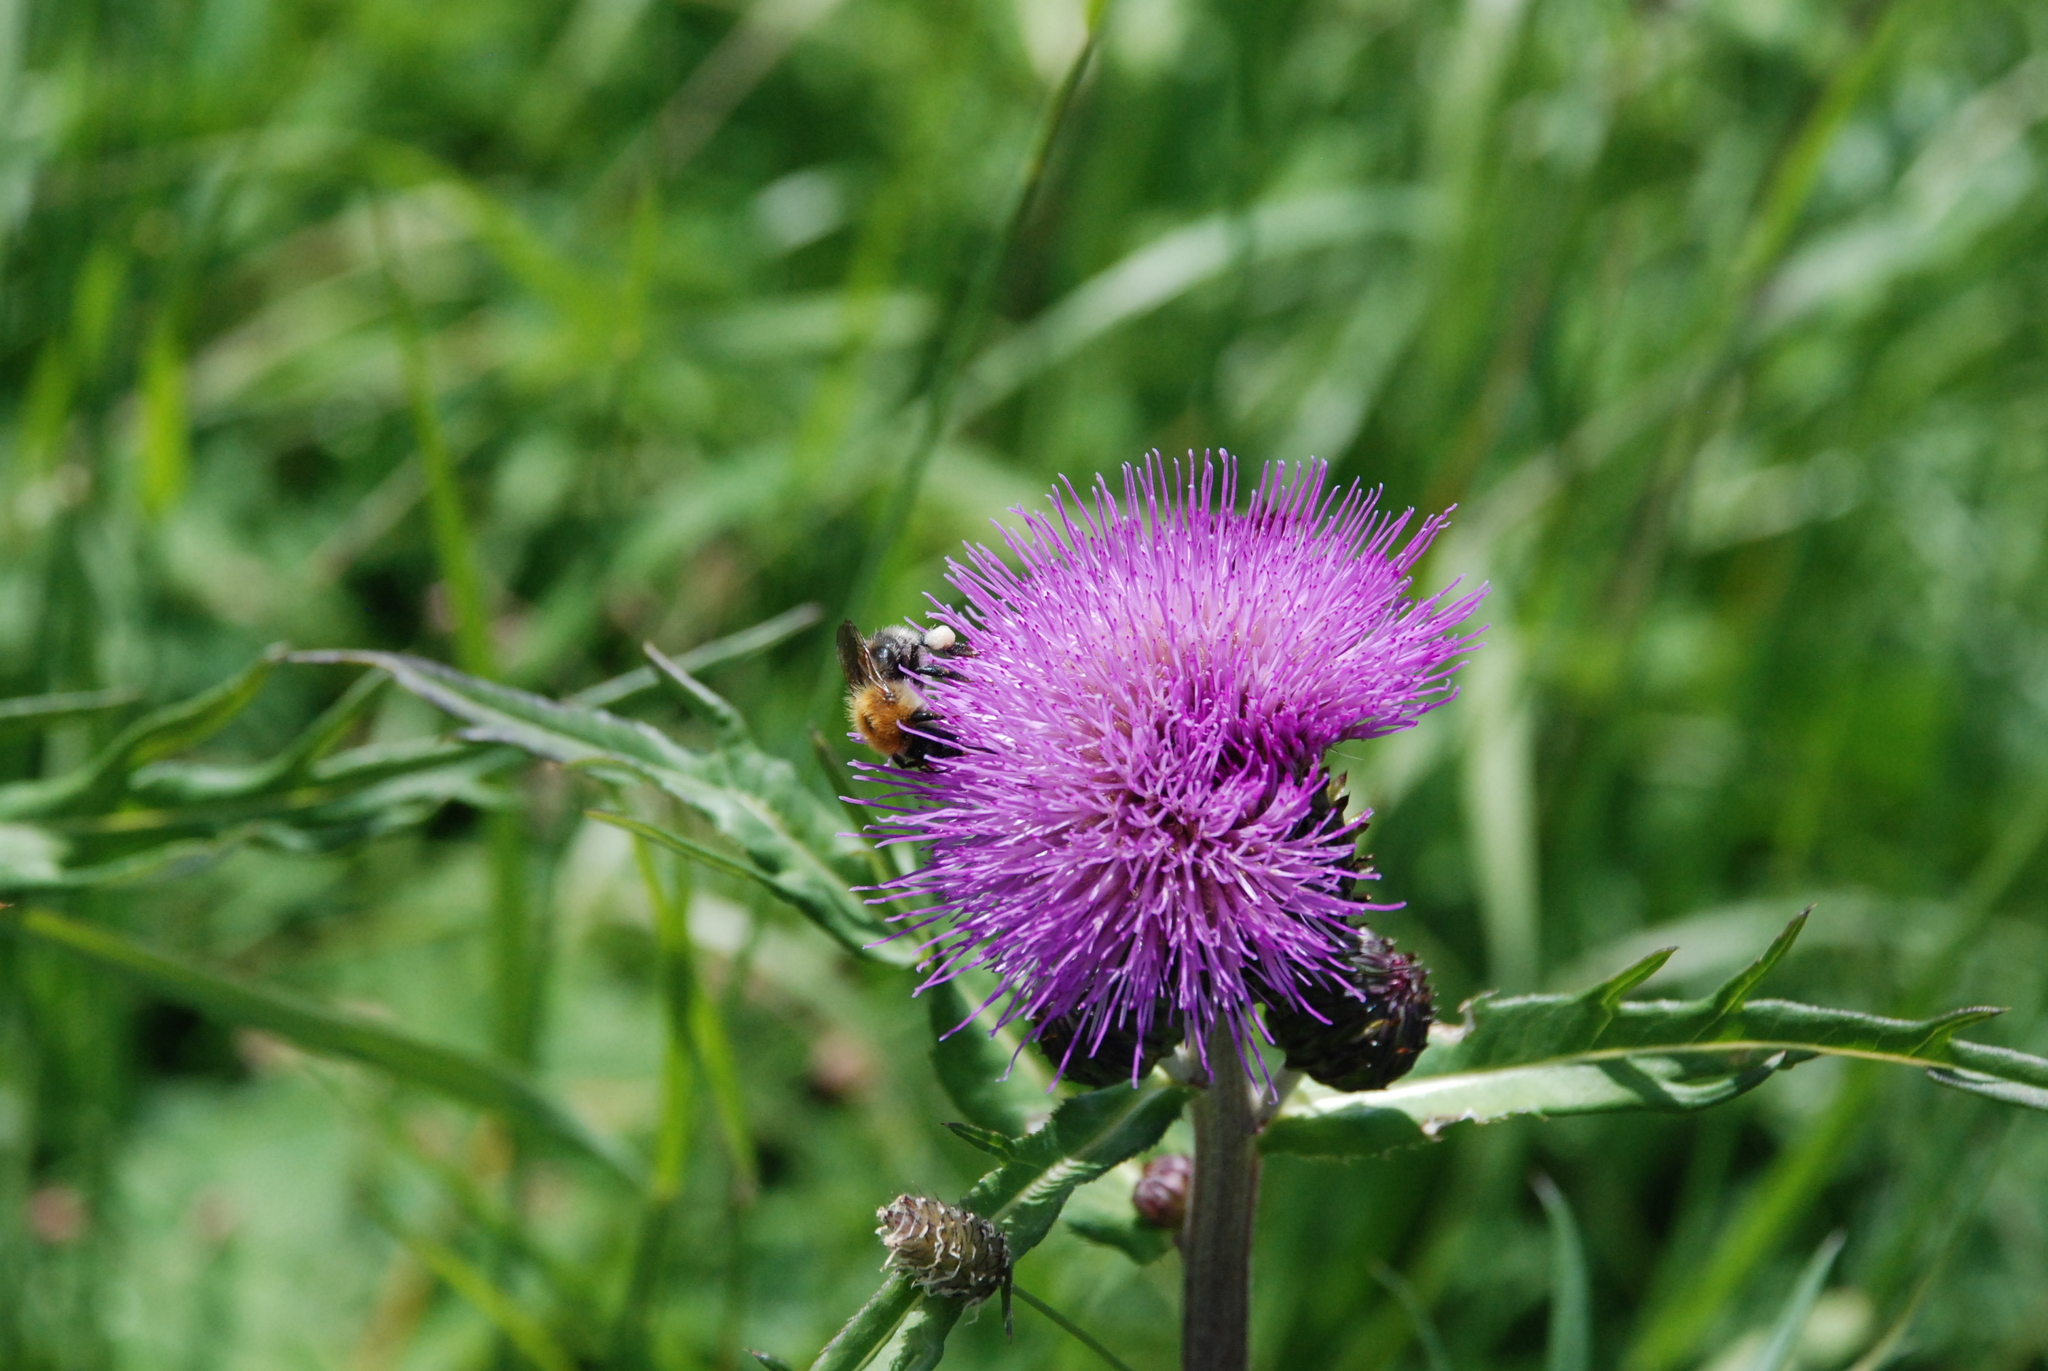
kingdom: Plantae
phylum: Tracheophyta
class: Magnoliopsida
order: Asterales
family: Asteraceae
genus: Cirsium
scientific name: Cirsium heterophyllum
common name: Melancholy thistle
